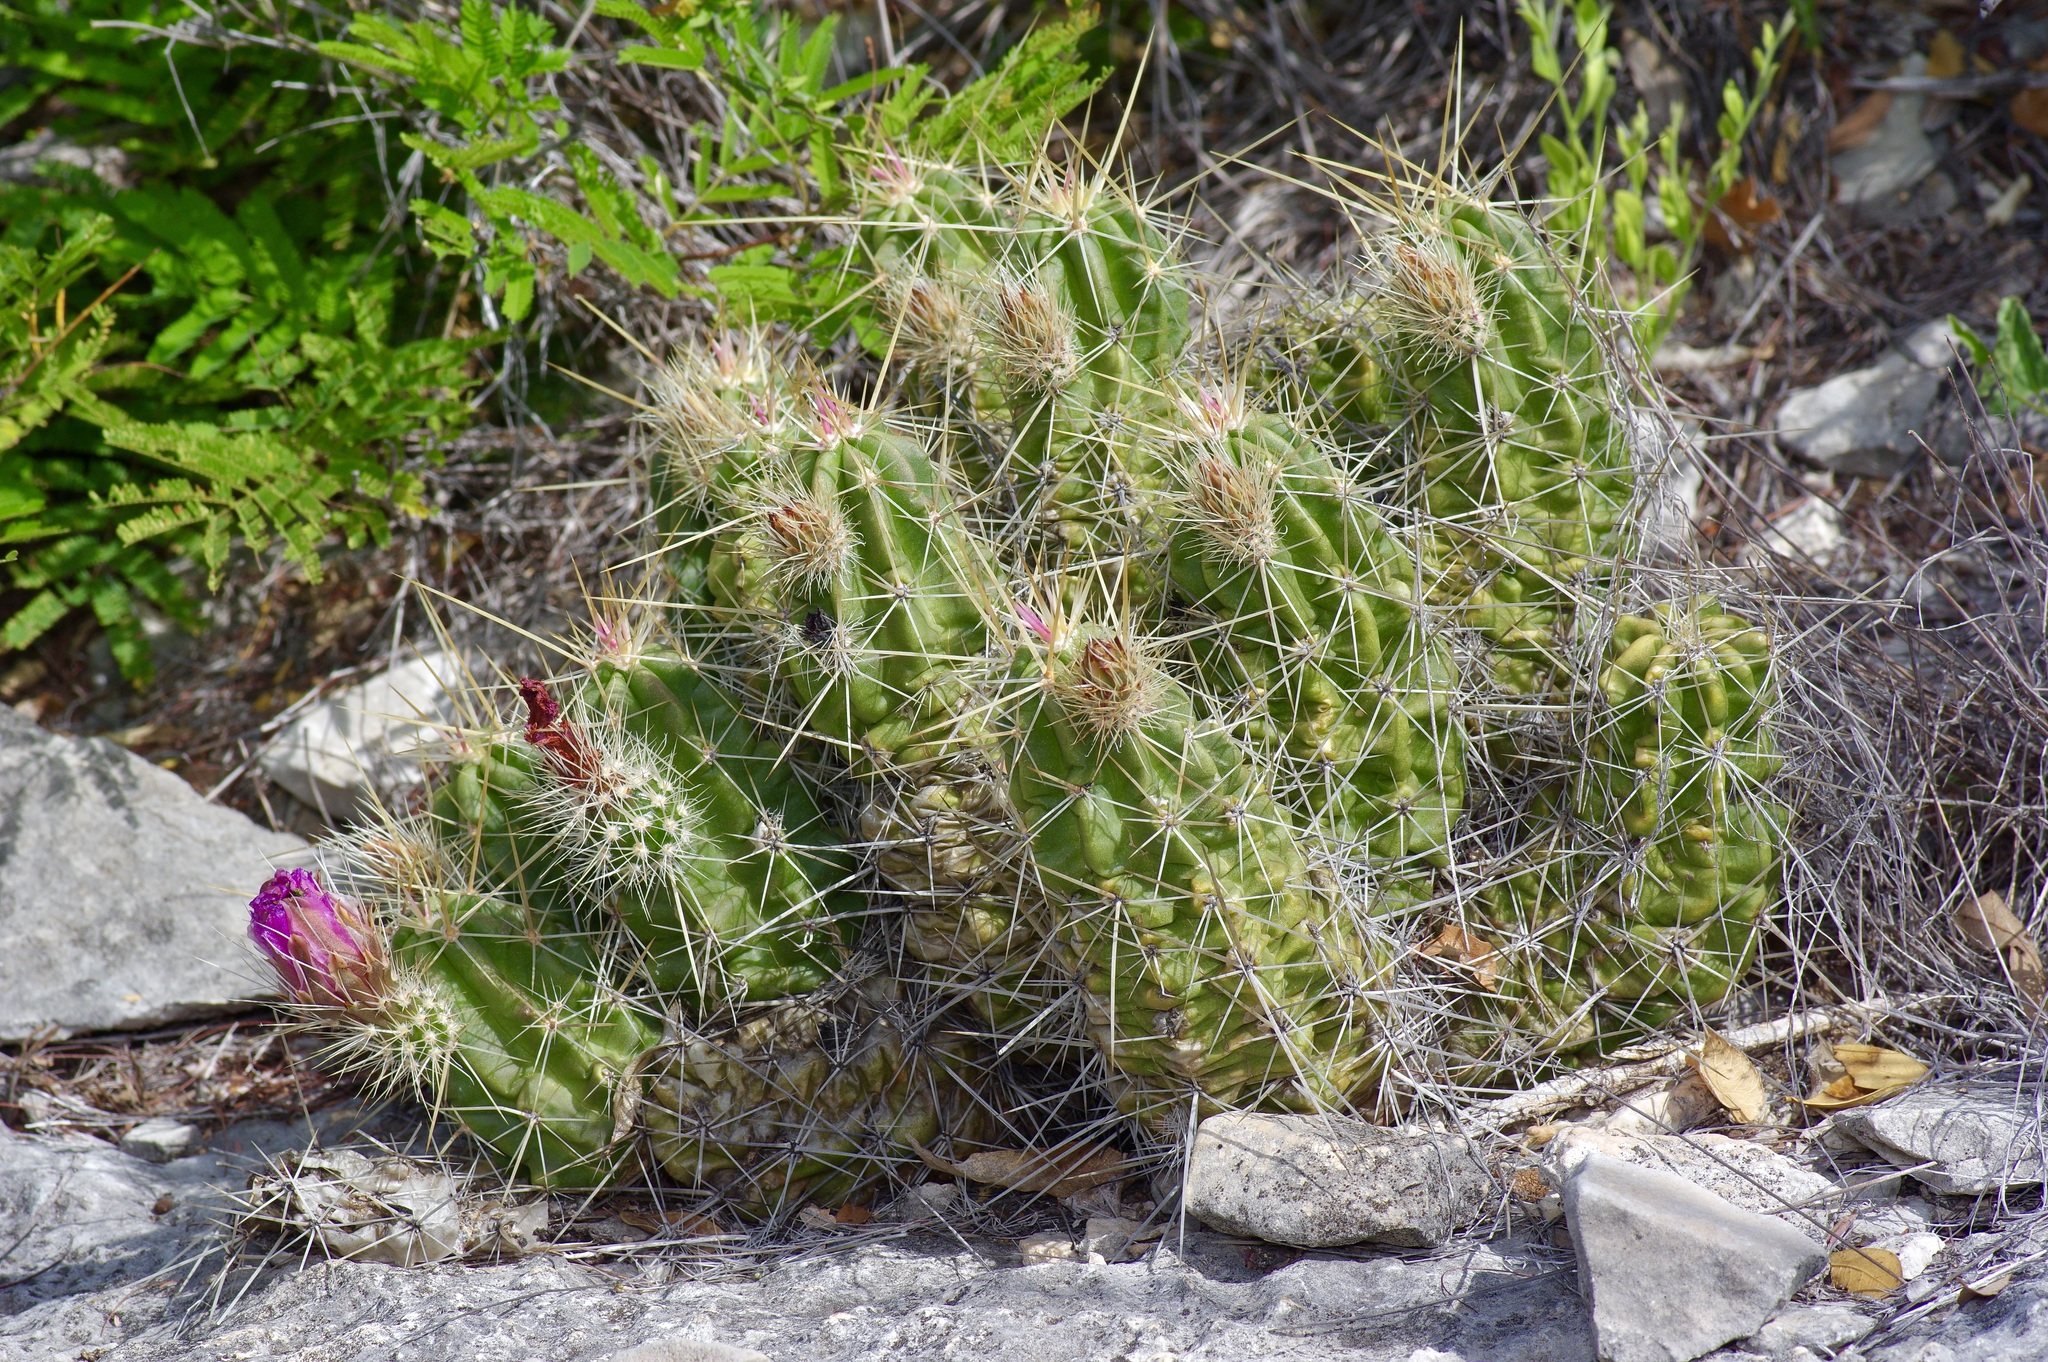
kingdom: Plantae
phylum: Tracheophyta
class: Magnoliopsida
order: Caryophyllales
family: Cactaceae
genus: Echinocereus
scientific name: Echinocereus enneacanthus
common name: Pitaya
